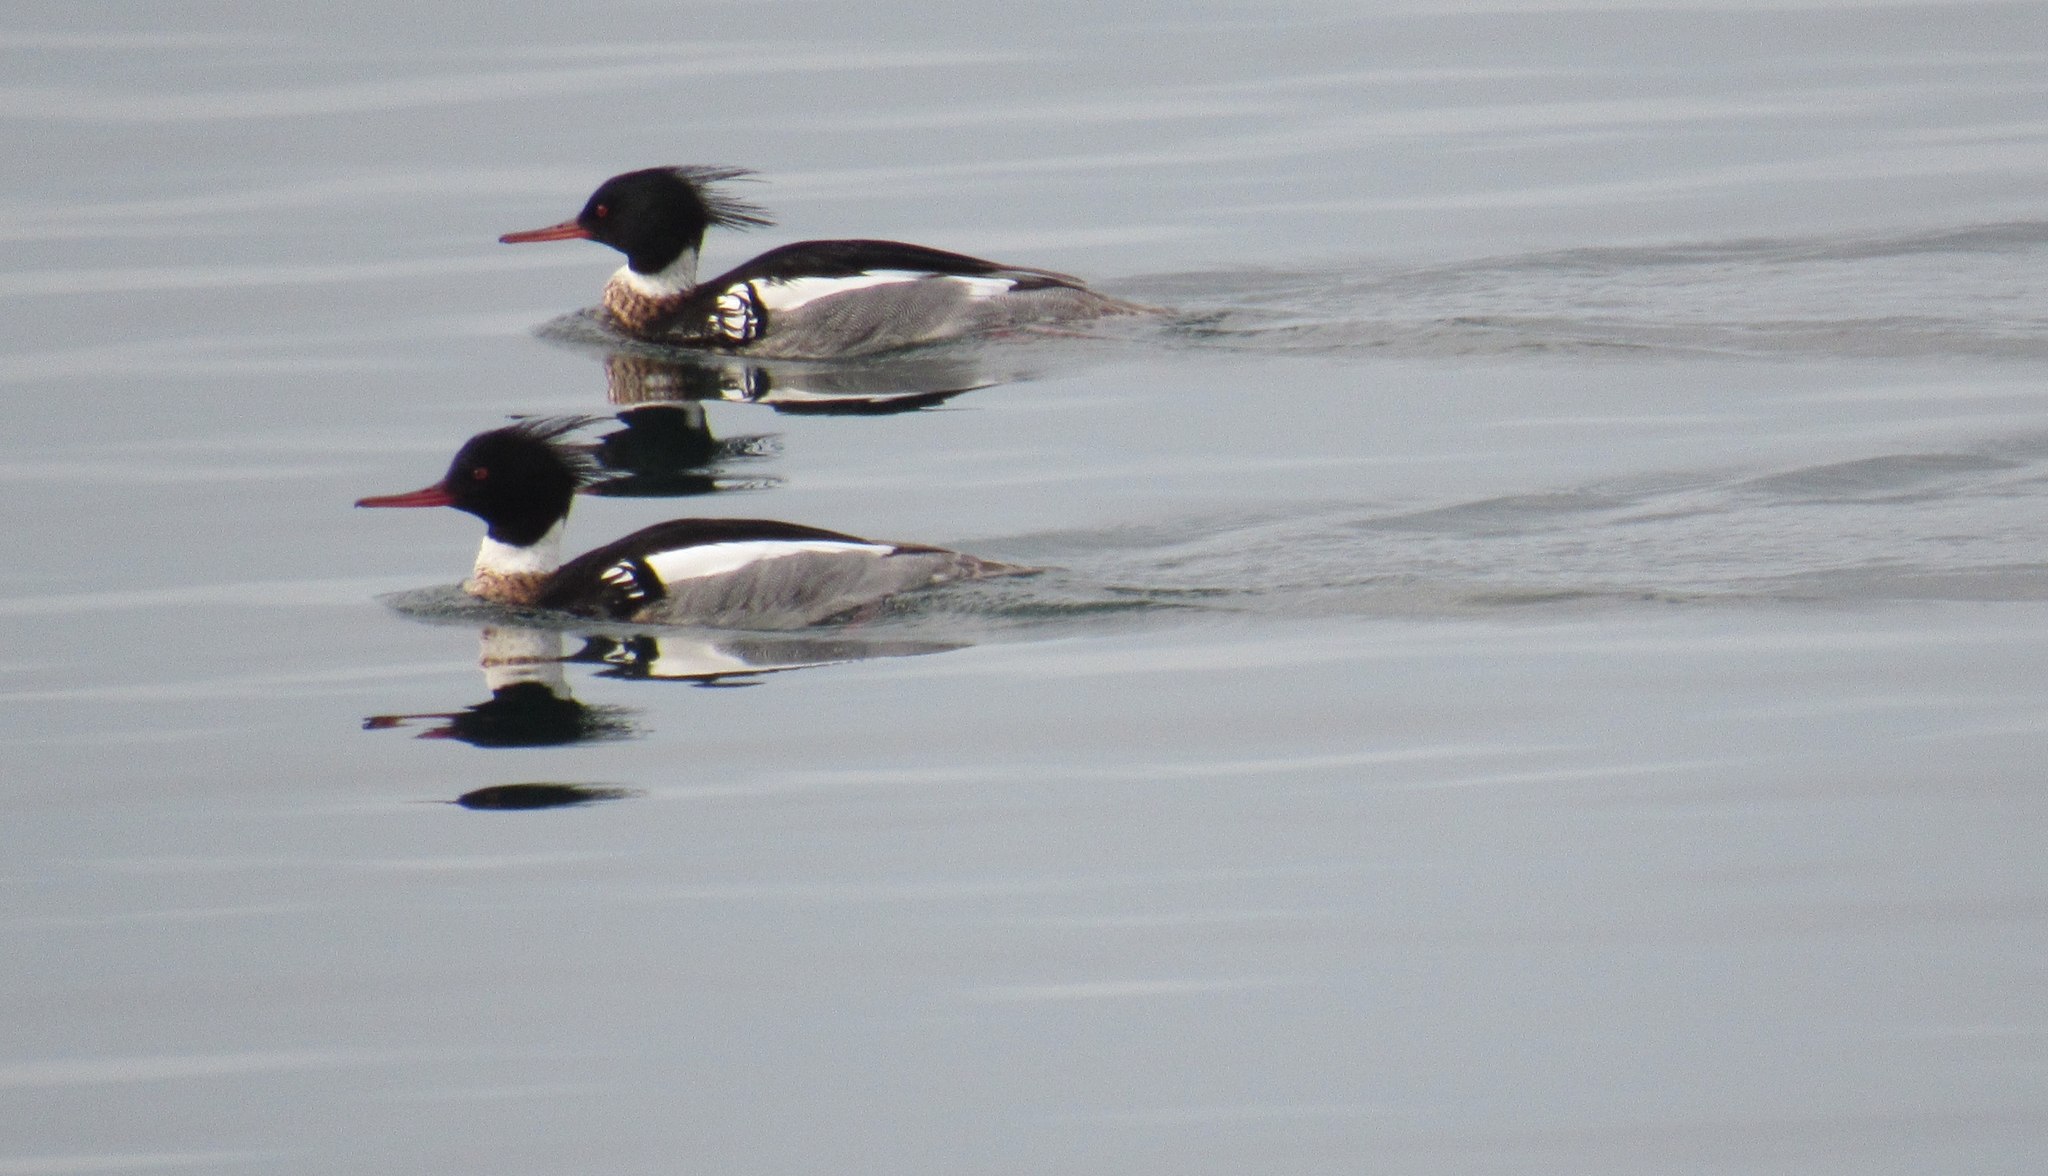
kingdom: Animalia
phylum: Chordata
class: Aves
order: Anseriformes
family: Anatidae
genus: Mergus
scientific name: Mergus serrator
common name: Red-breasted merganser
